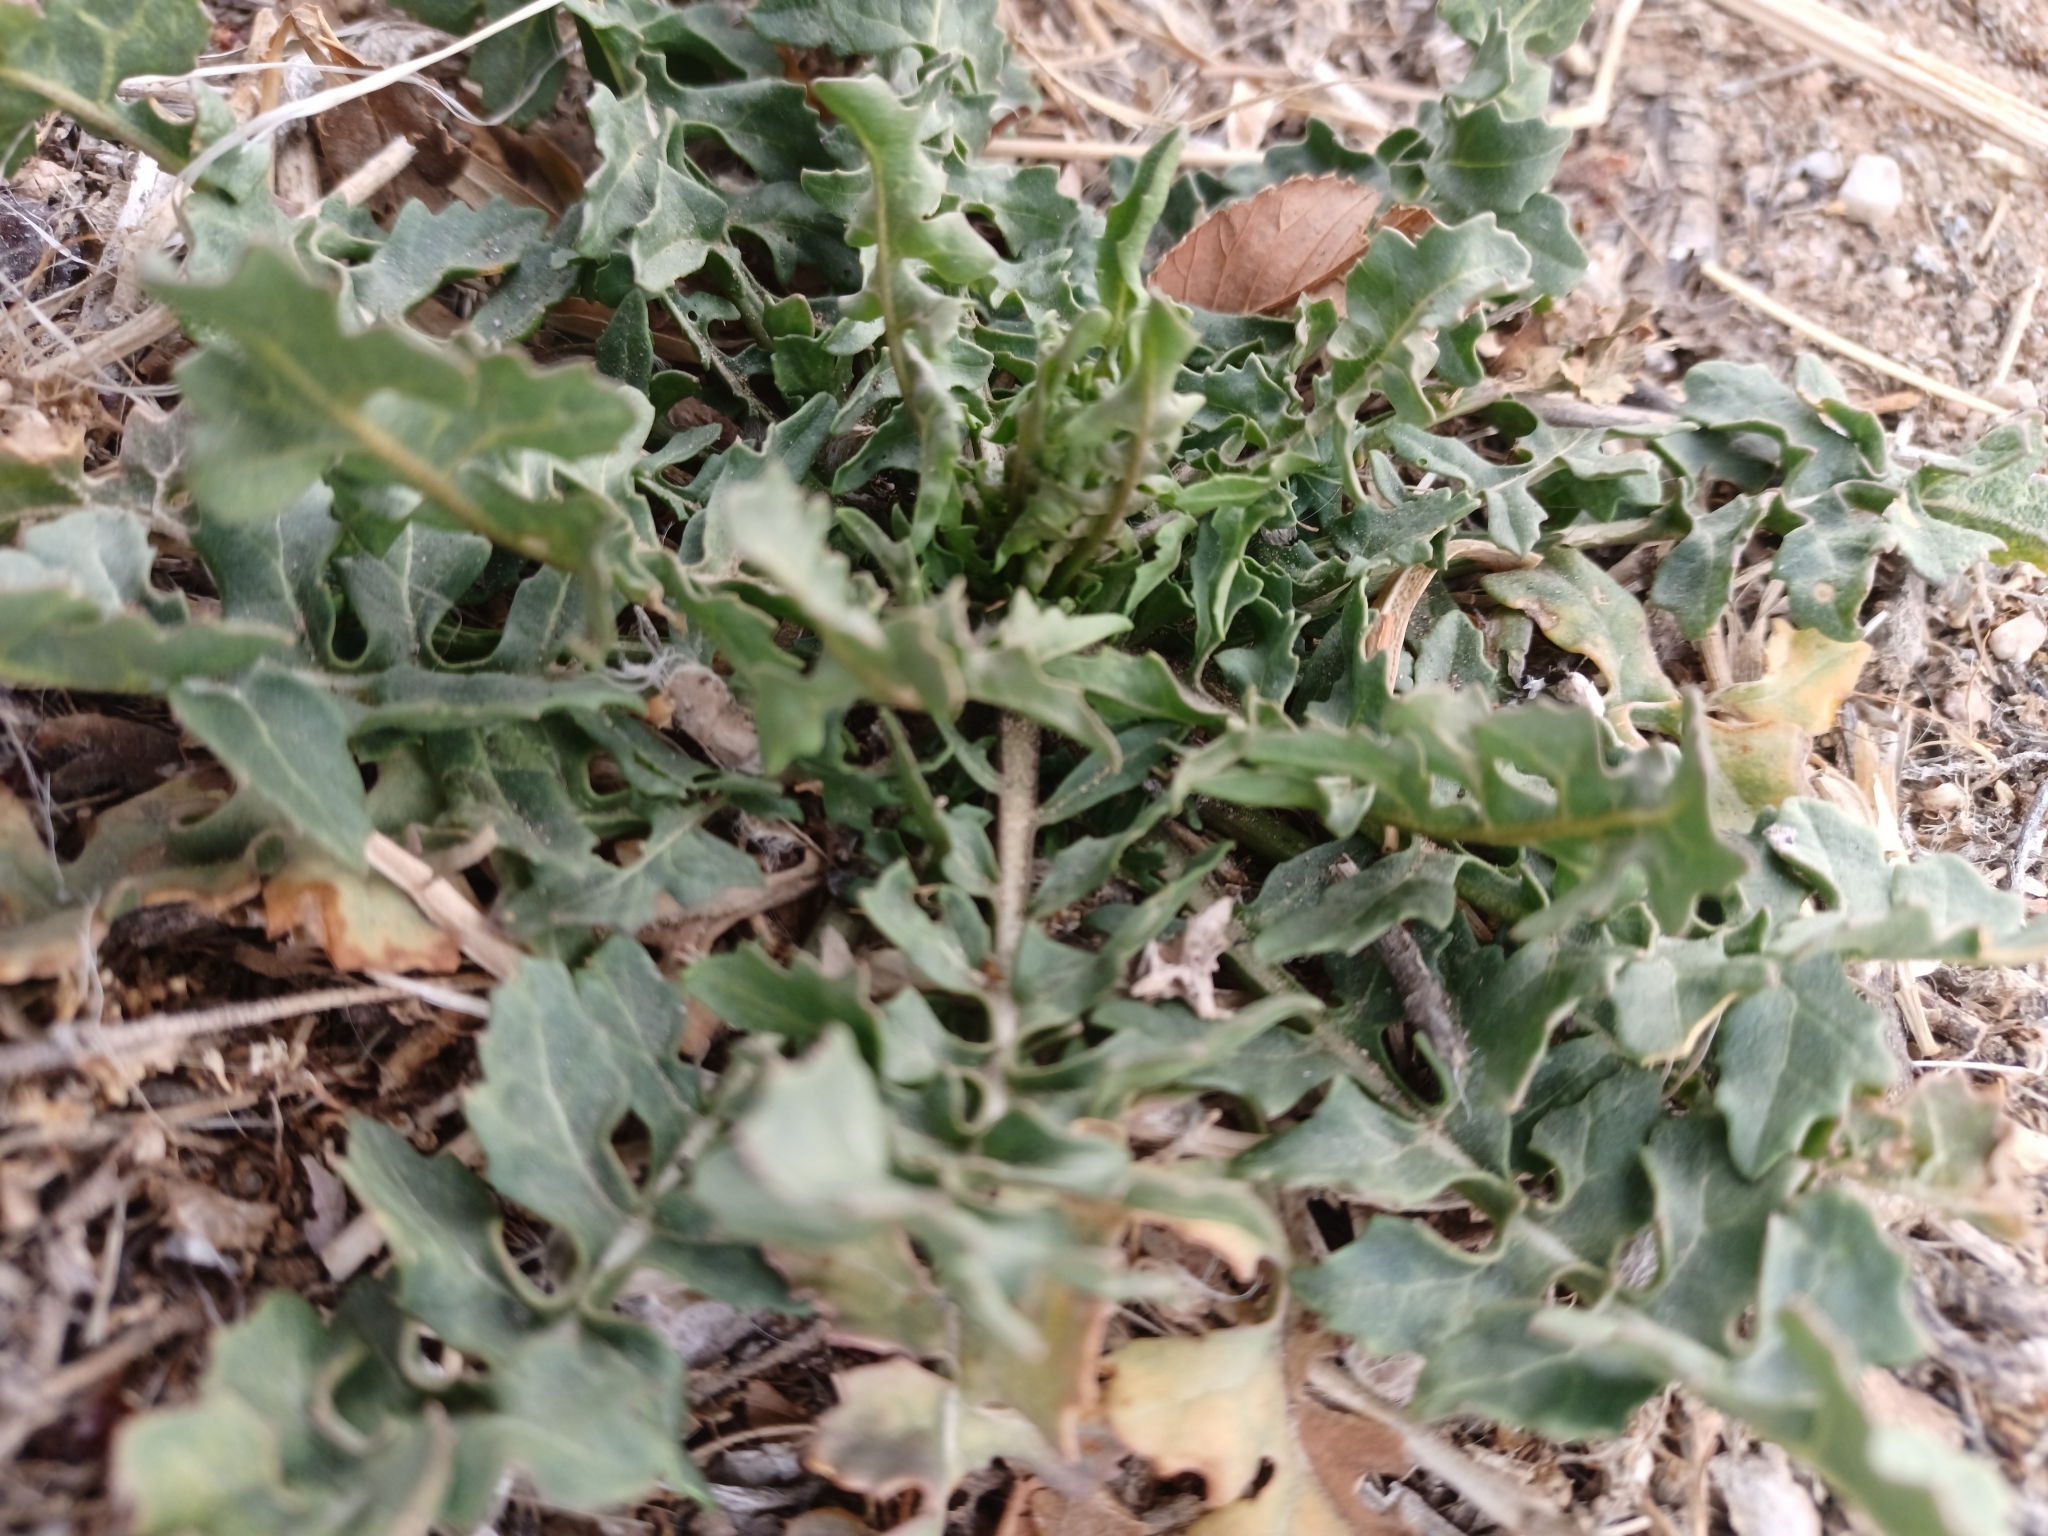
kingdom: Plantae
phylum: Tracheophyta
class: Magnoliopsida
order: Brassicales
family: Brassicaceae
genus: Sisymbrium
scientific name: Sisymbrium irio
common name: London rocket
